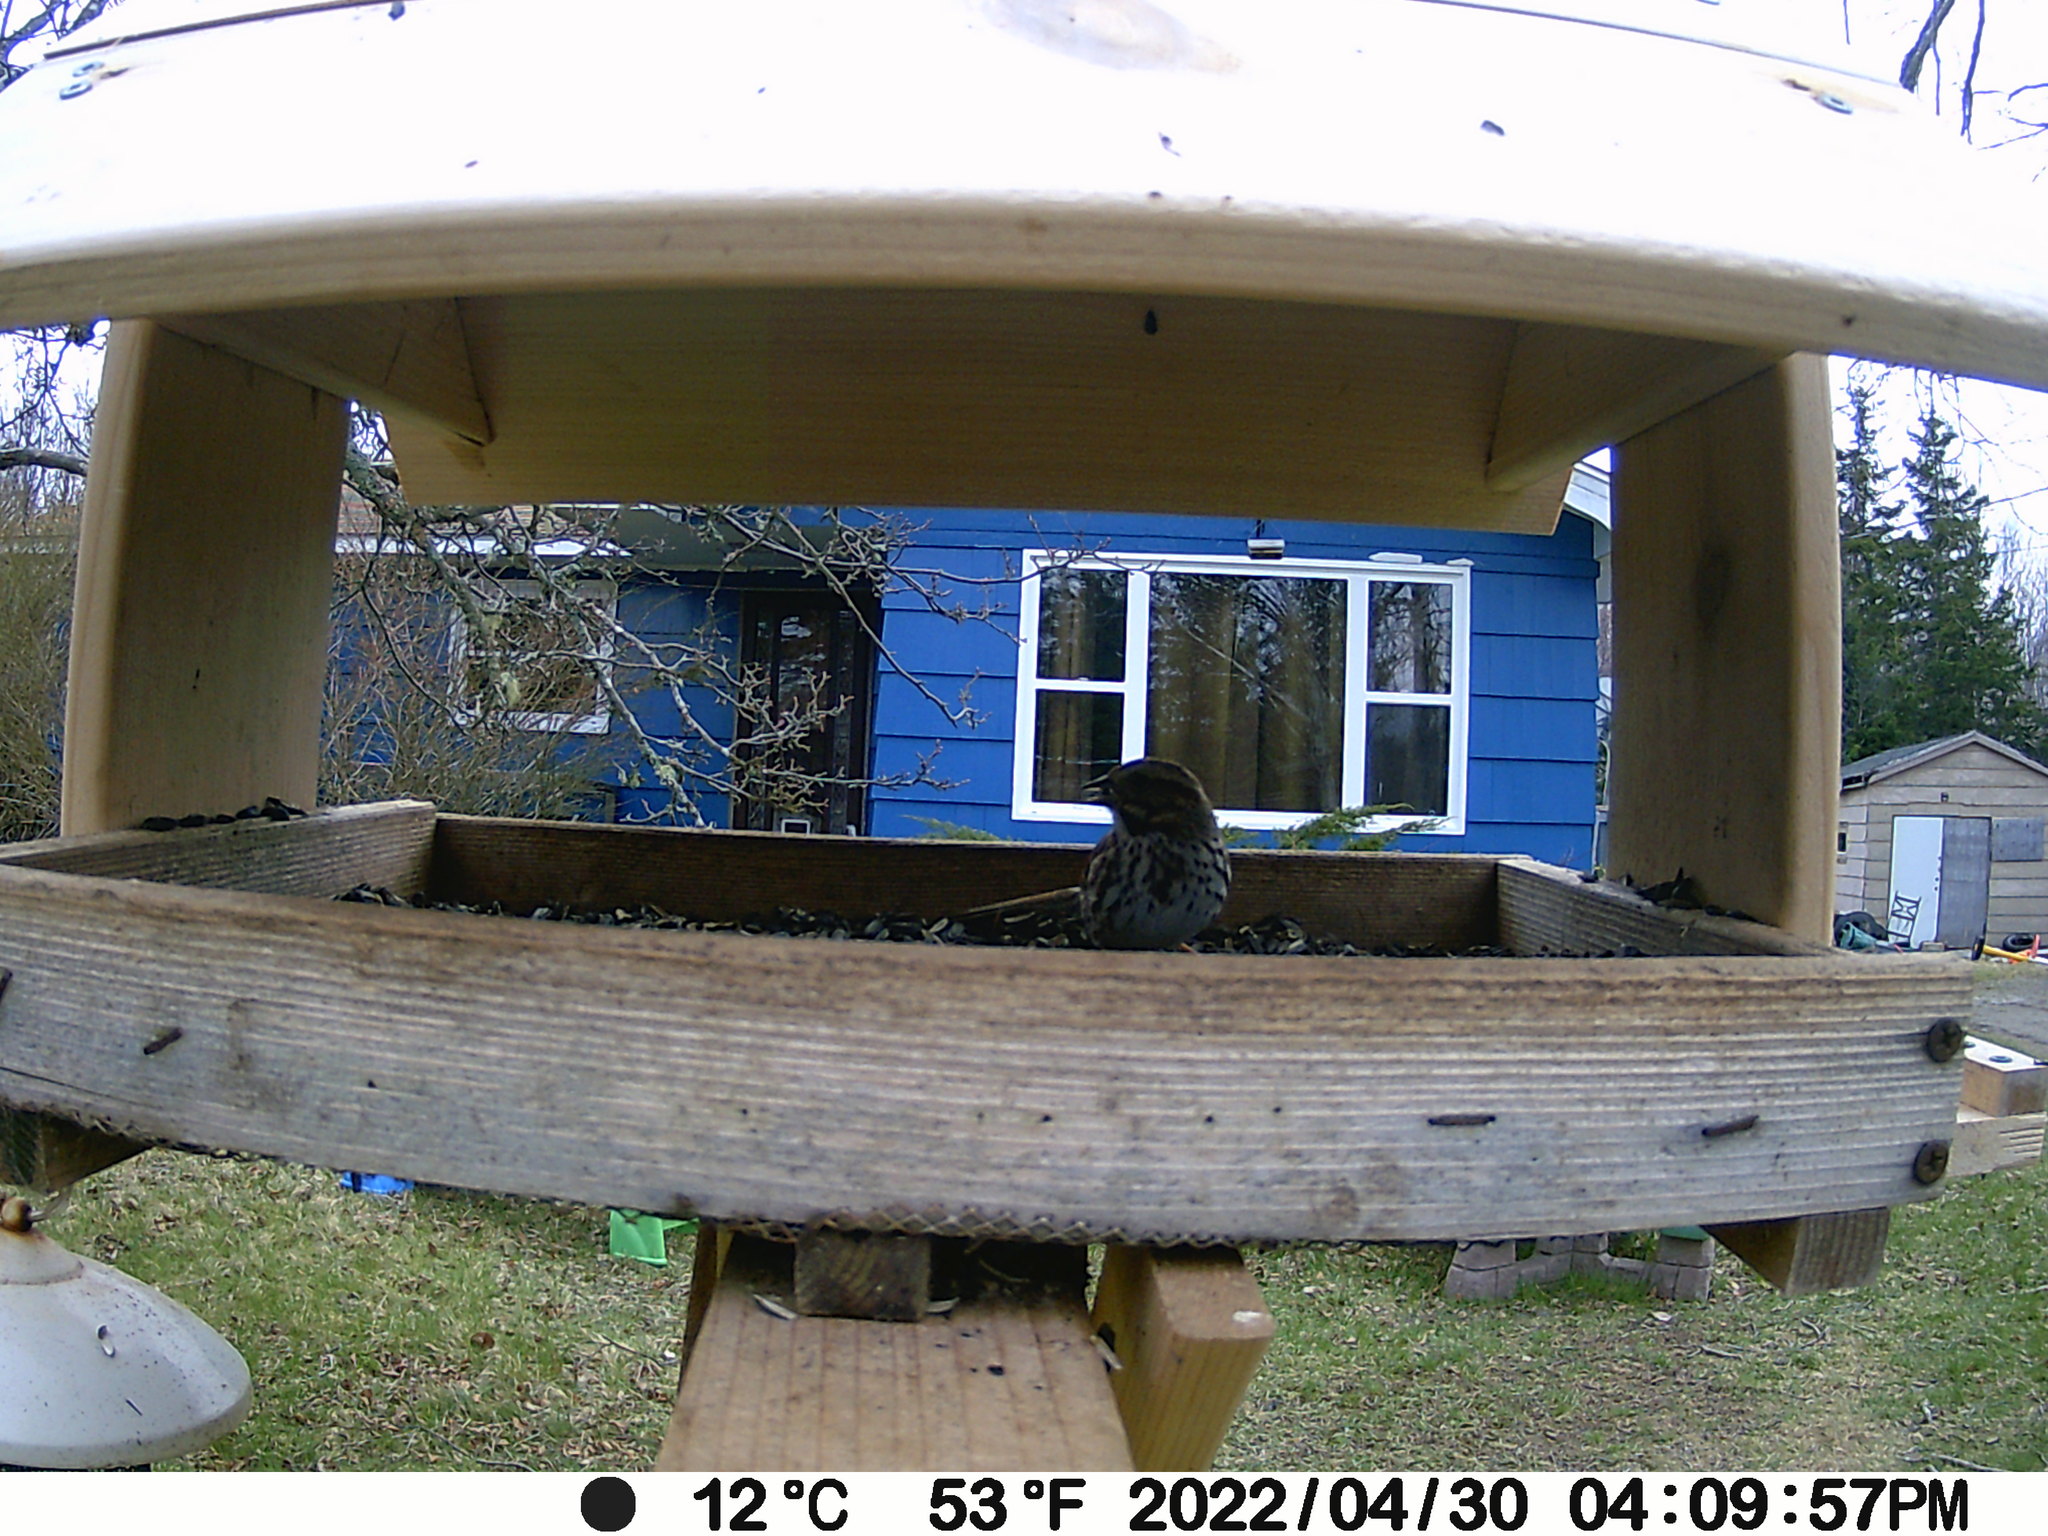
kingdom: Animalia
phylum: Chordata
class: Aves
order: Passeriformes
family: Passerellidae
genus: Melospiza
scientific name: Melospiza melodia
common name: Song sparrow
